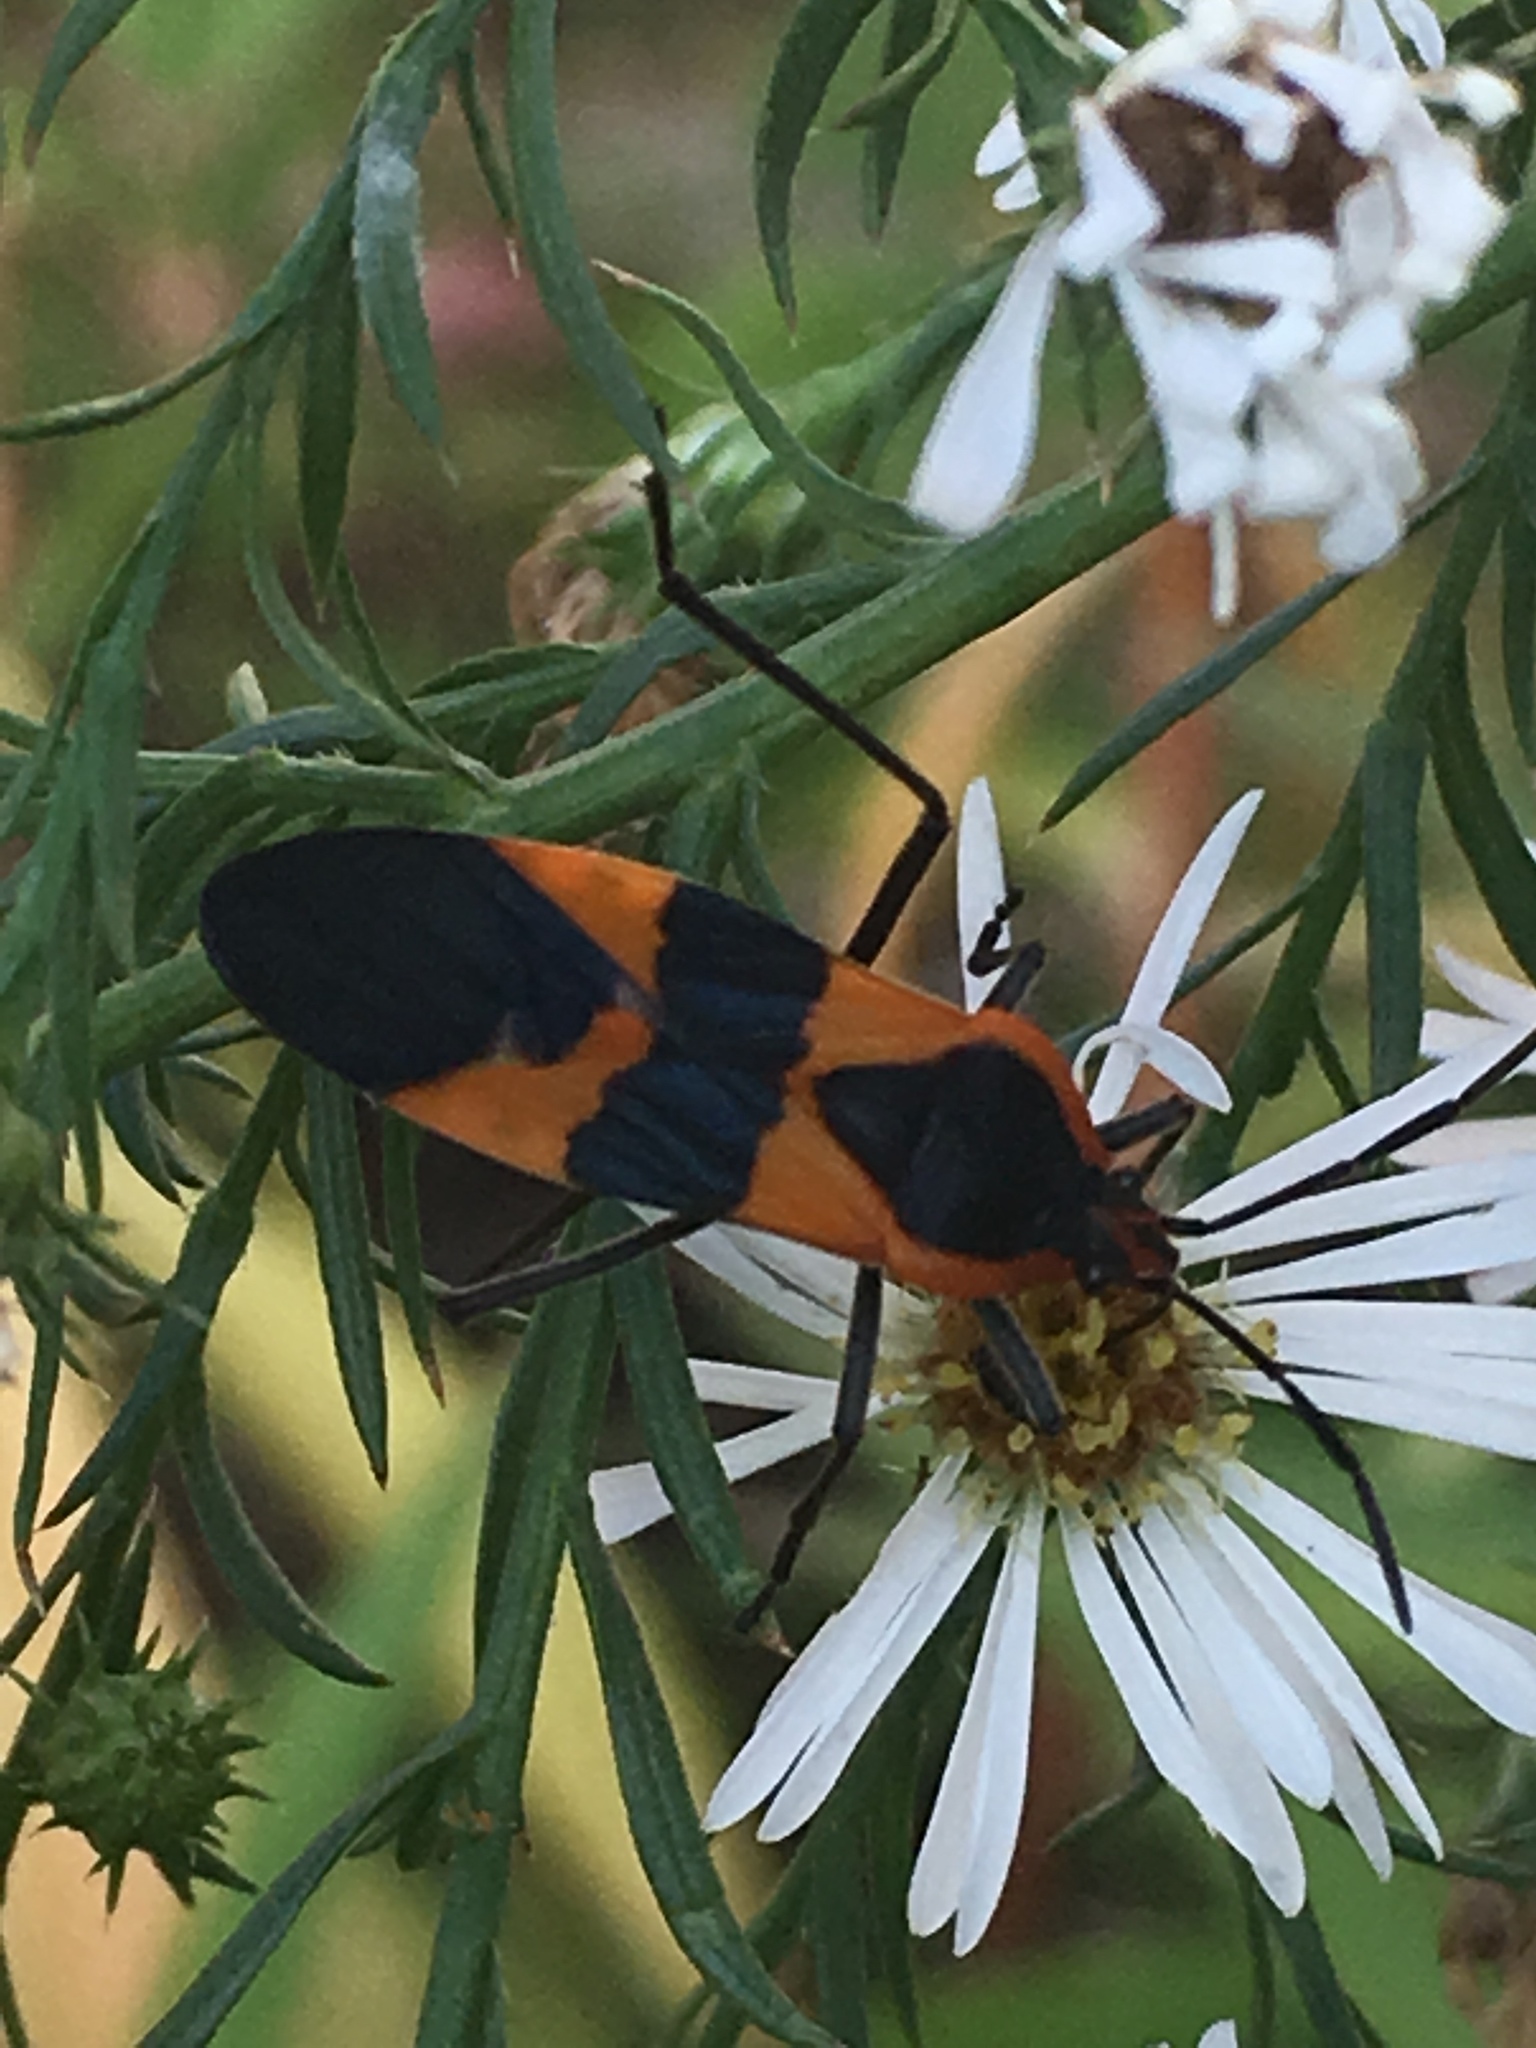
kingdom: Animalia
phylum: Arthropoda
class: Insecta
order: Hemiptera
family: Lygaeidae
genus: Oncopeltus
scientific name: Oncopeltus fasciatus
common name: Large milkweed bug
